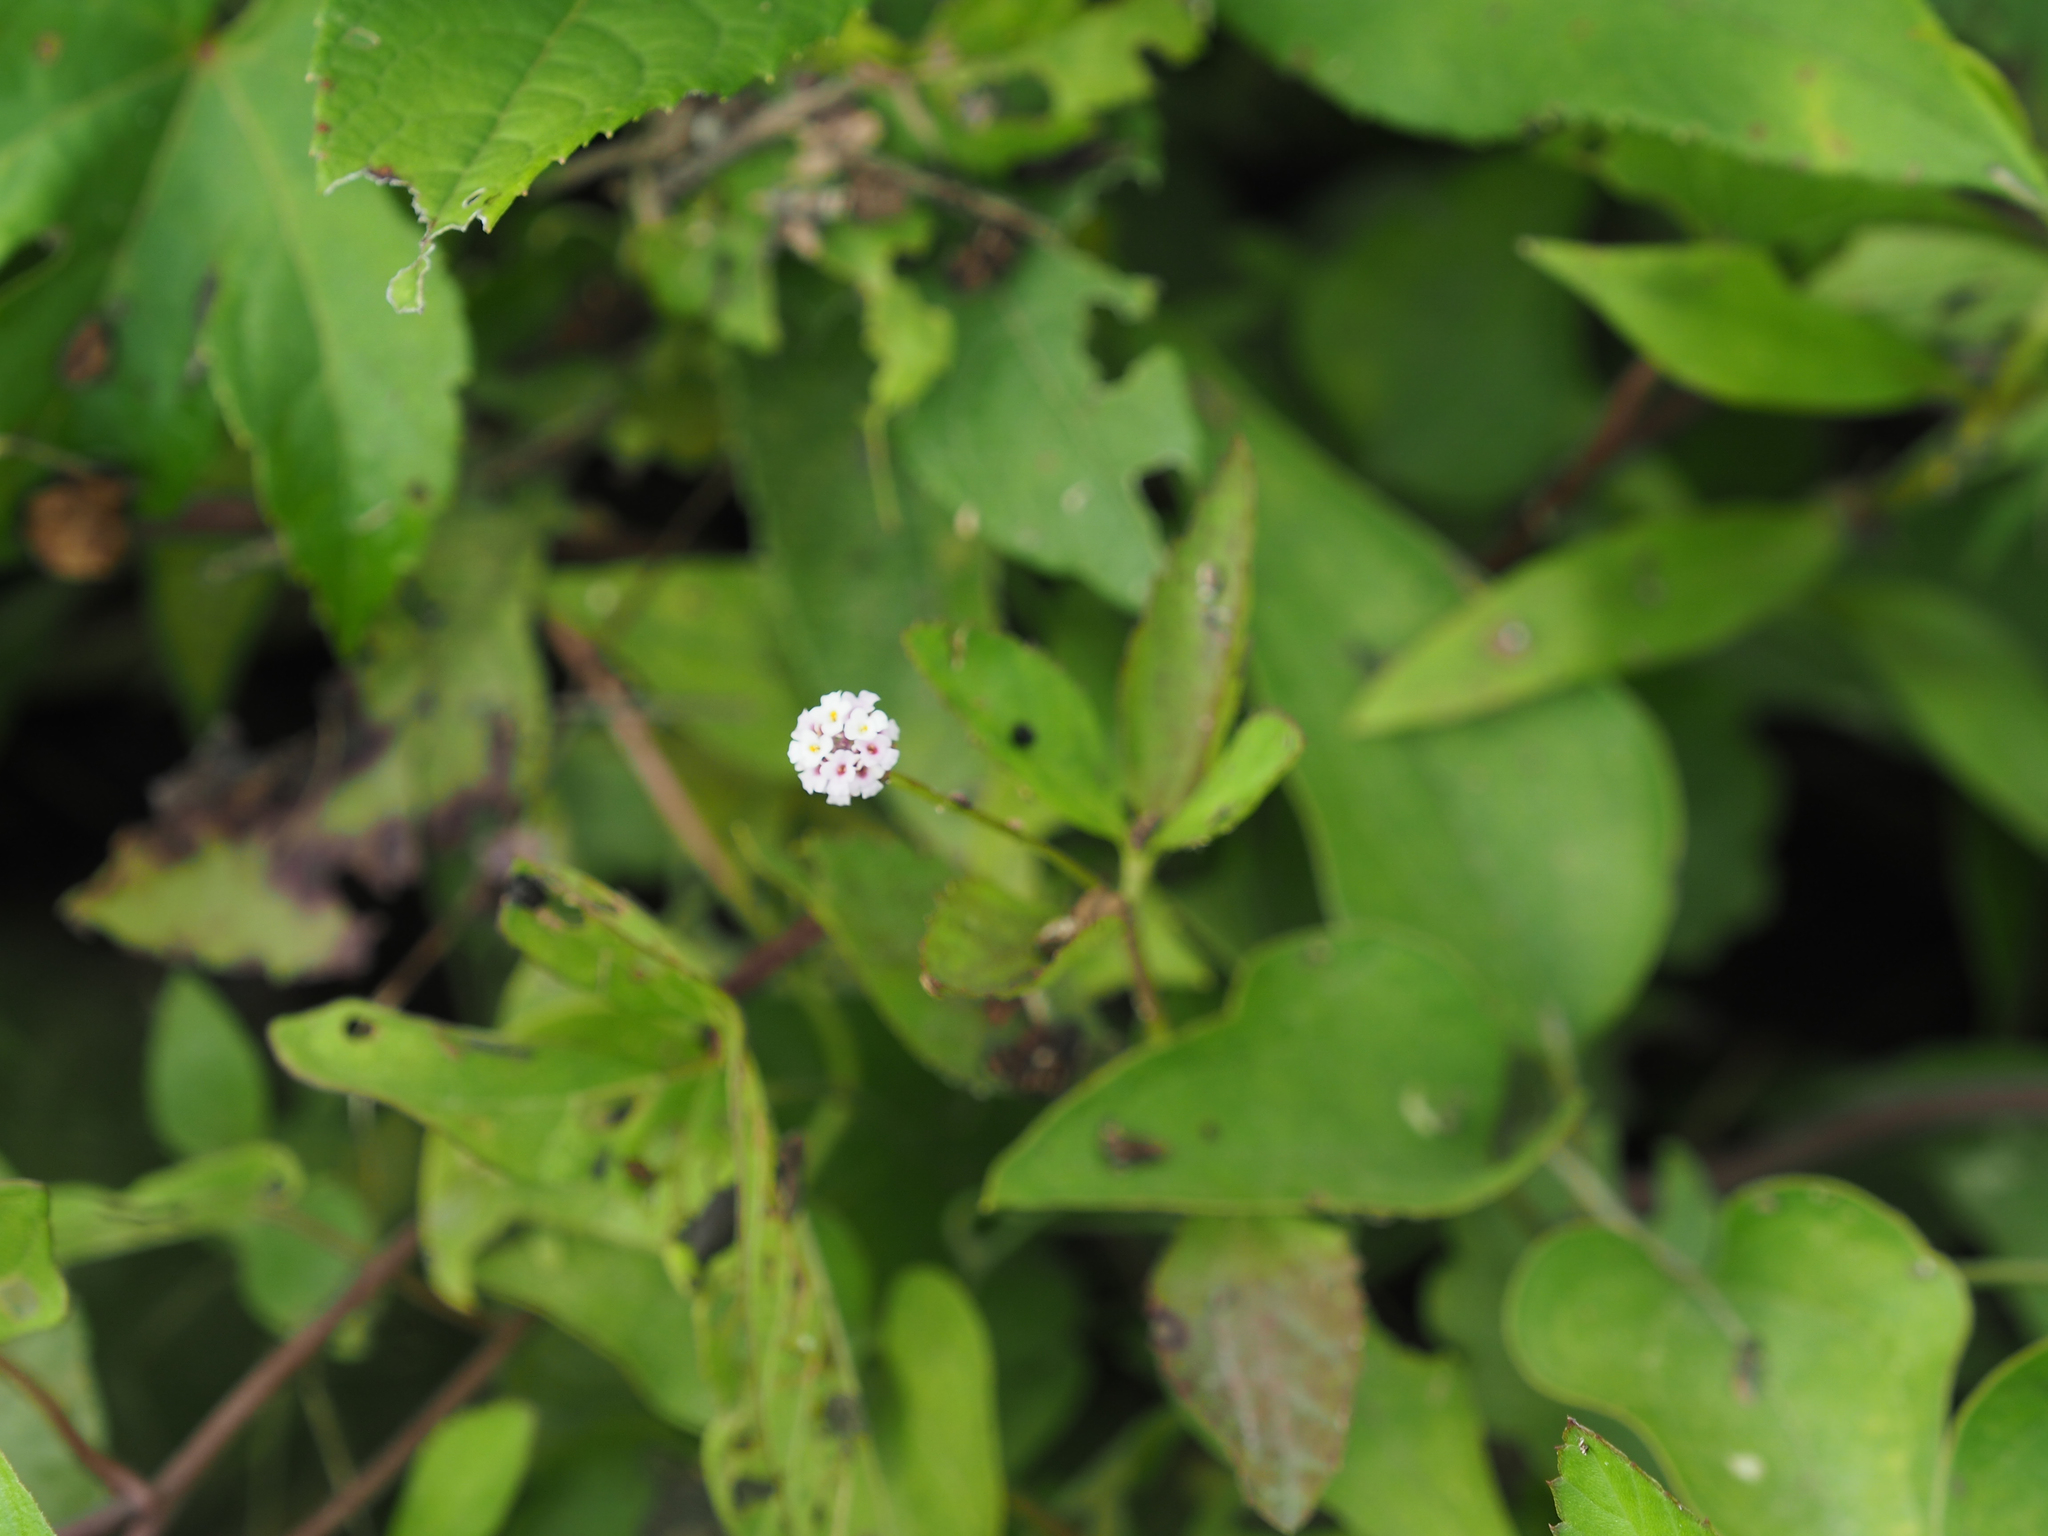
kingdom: Plantae
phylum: Tracheophyta
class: Magnoliopsida
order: Lamiales
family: Verbenaceae
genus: Phyla
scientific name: Phyla lanceolata
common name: Northern fogfruit
